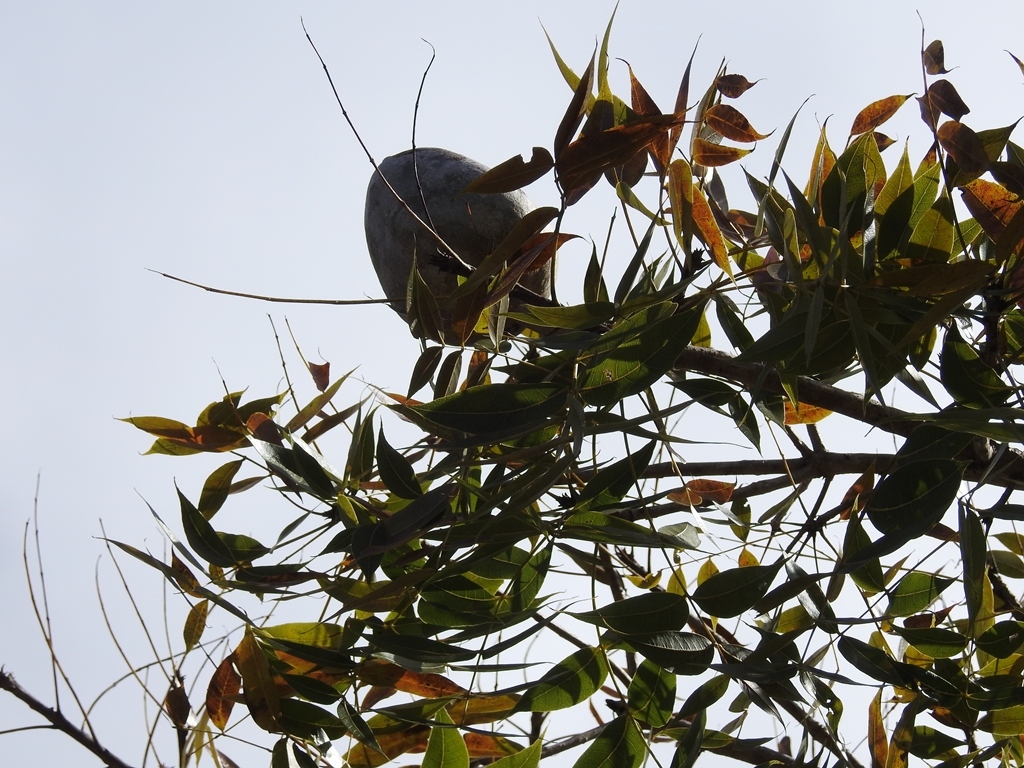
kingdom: Plantae
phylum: Tracheophyta
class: Magnoliopsida
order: Sapindales
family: Meliaceae
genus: Swietenia
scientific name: Swietenia humilis
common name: Pacific coast mahogany
